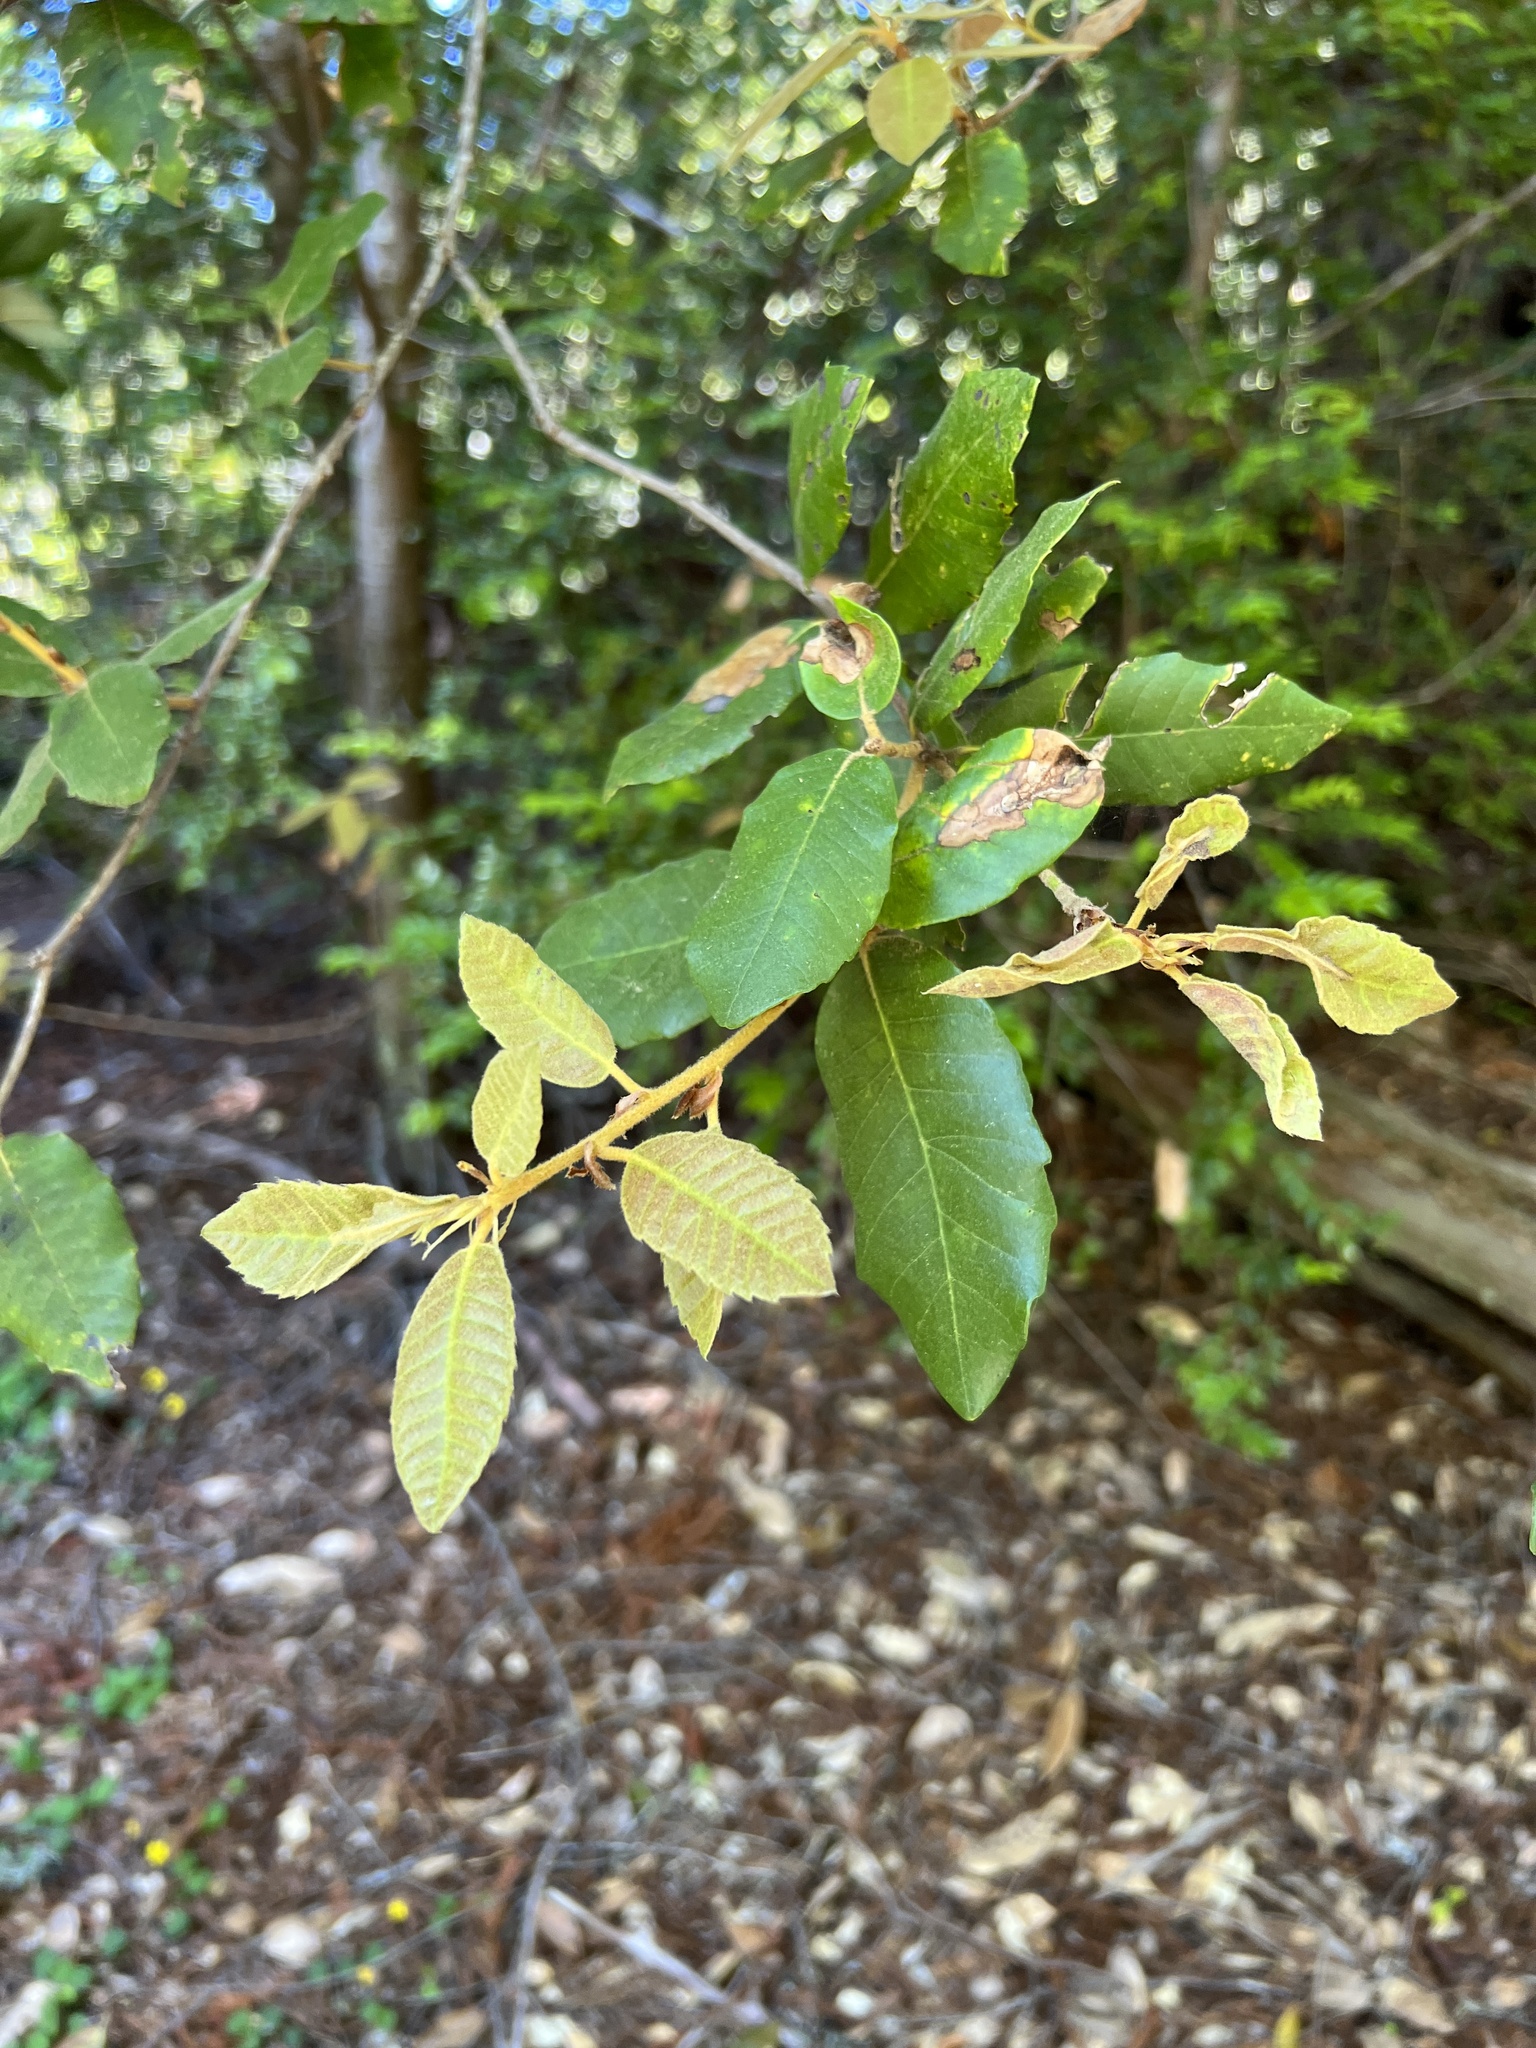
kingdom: Plantae
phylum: Tracheophyta
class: Magnoliopsida
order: Fagales
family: Fagaceae
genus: Notholithocarpus
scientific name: Notholithocarpus densiflorus
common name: Tan bark oak
